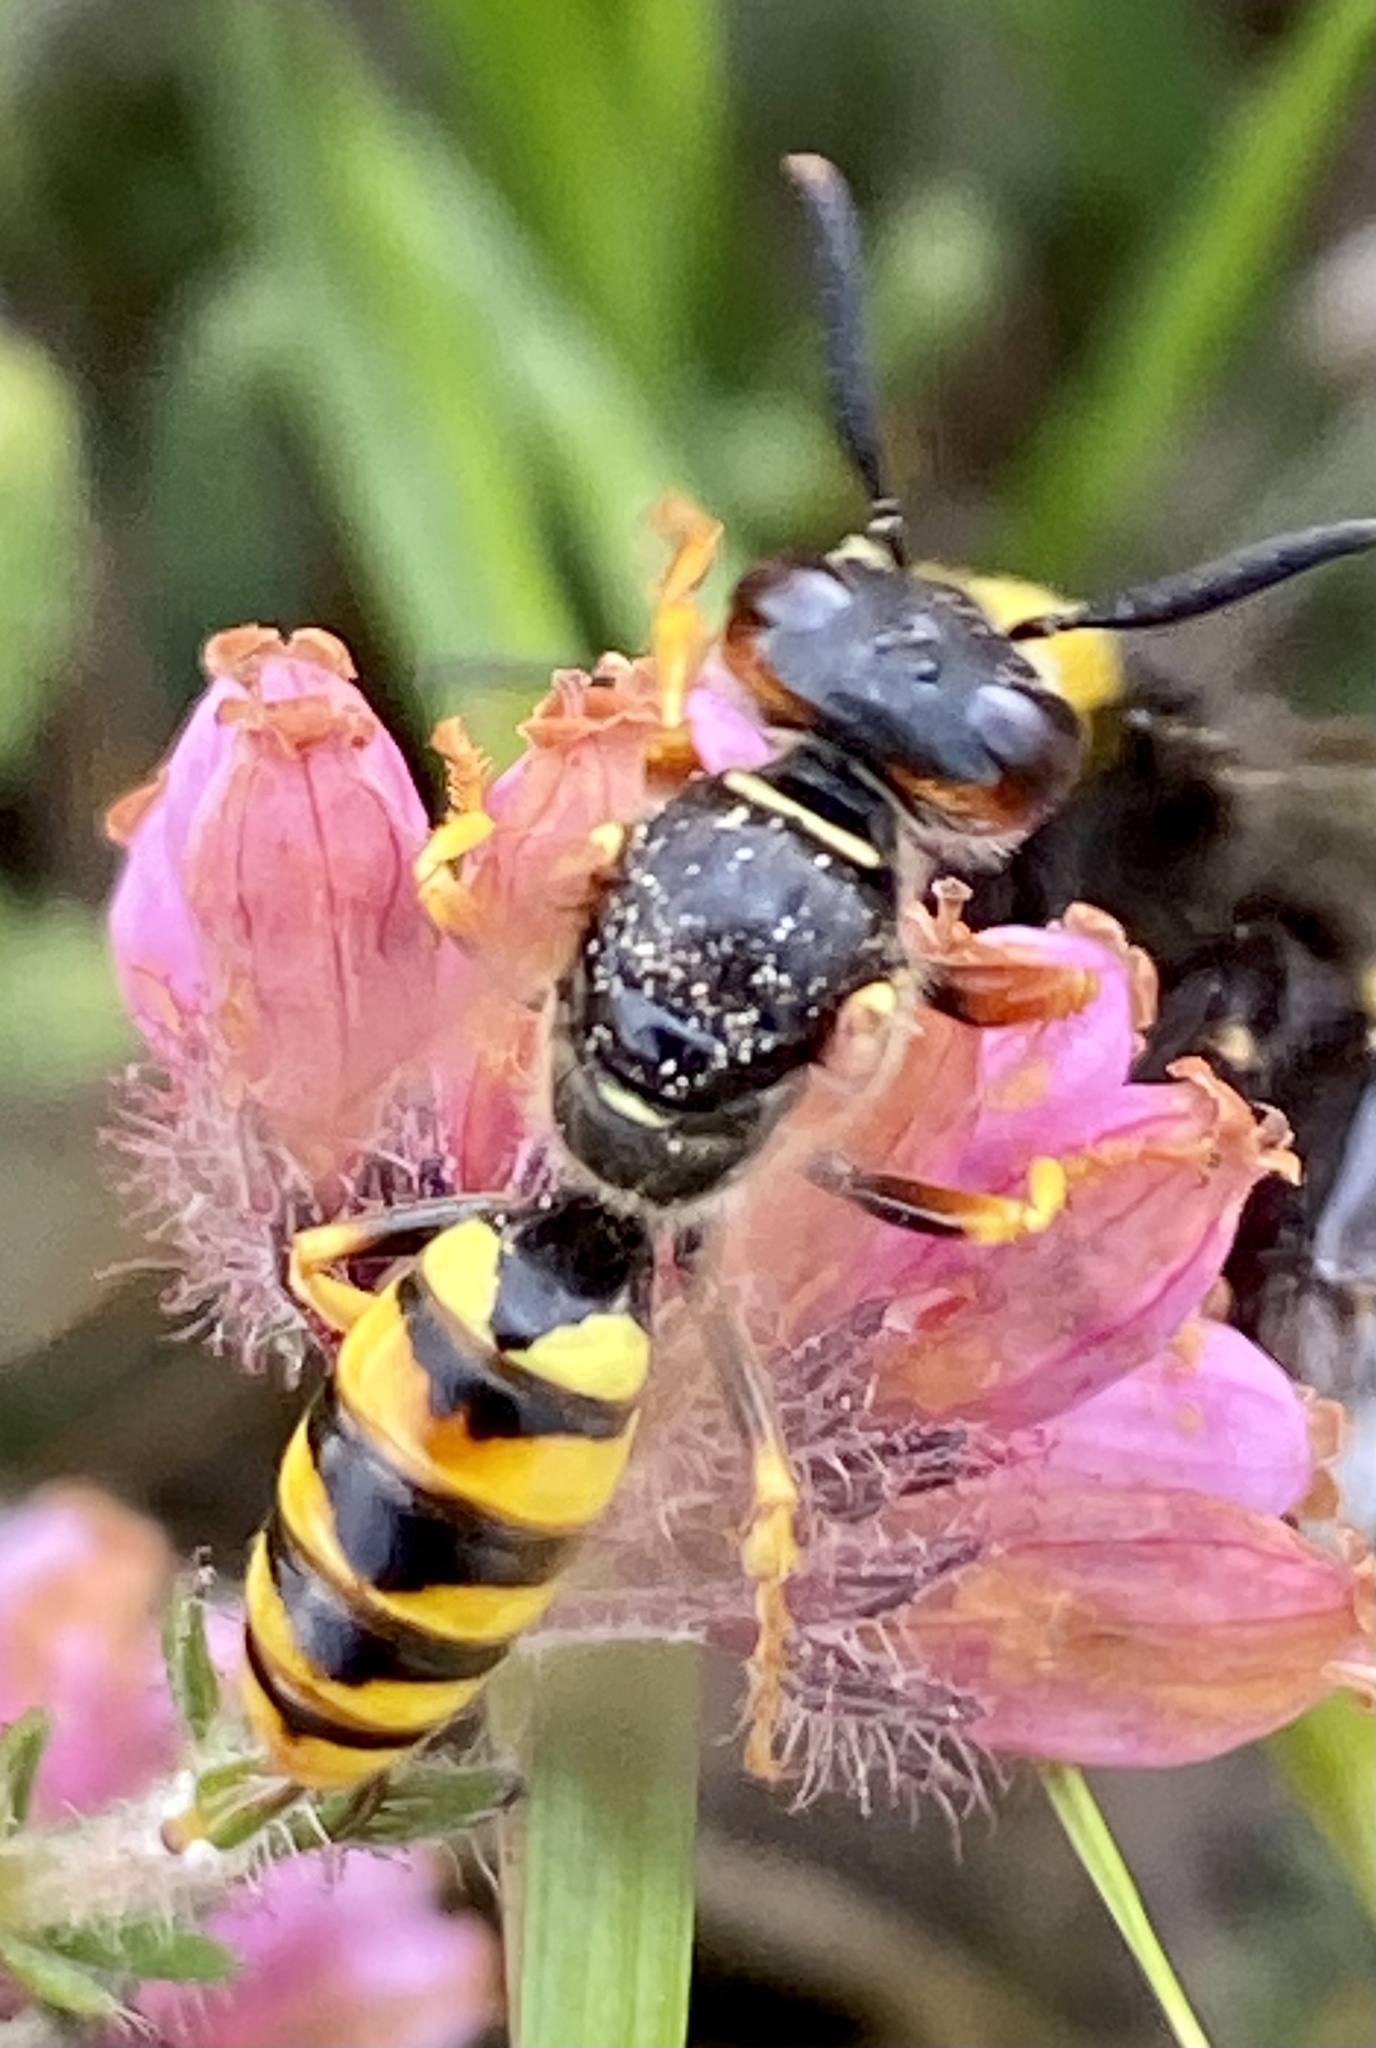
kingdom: Animalia
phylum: Arthropoda
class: Insecta
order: Hymenoptera
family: Crabronidae
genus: Philanthus
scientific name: Philanthus triangulum
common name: Bee wolf
